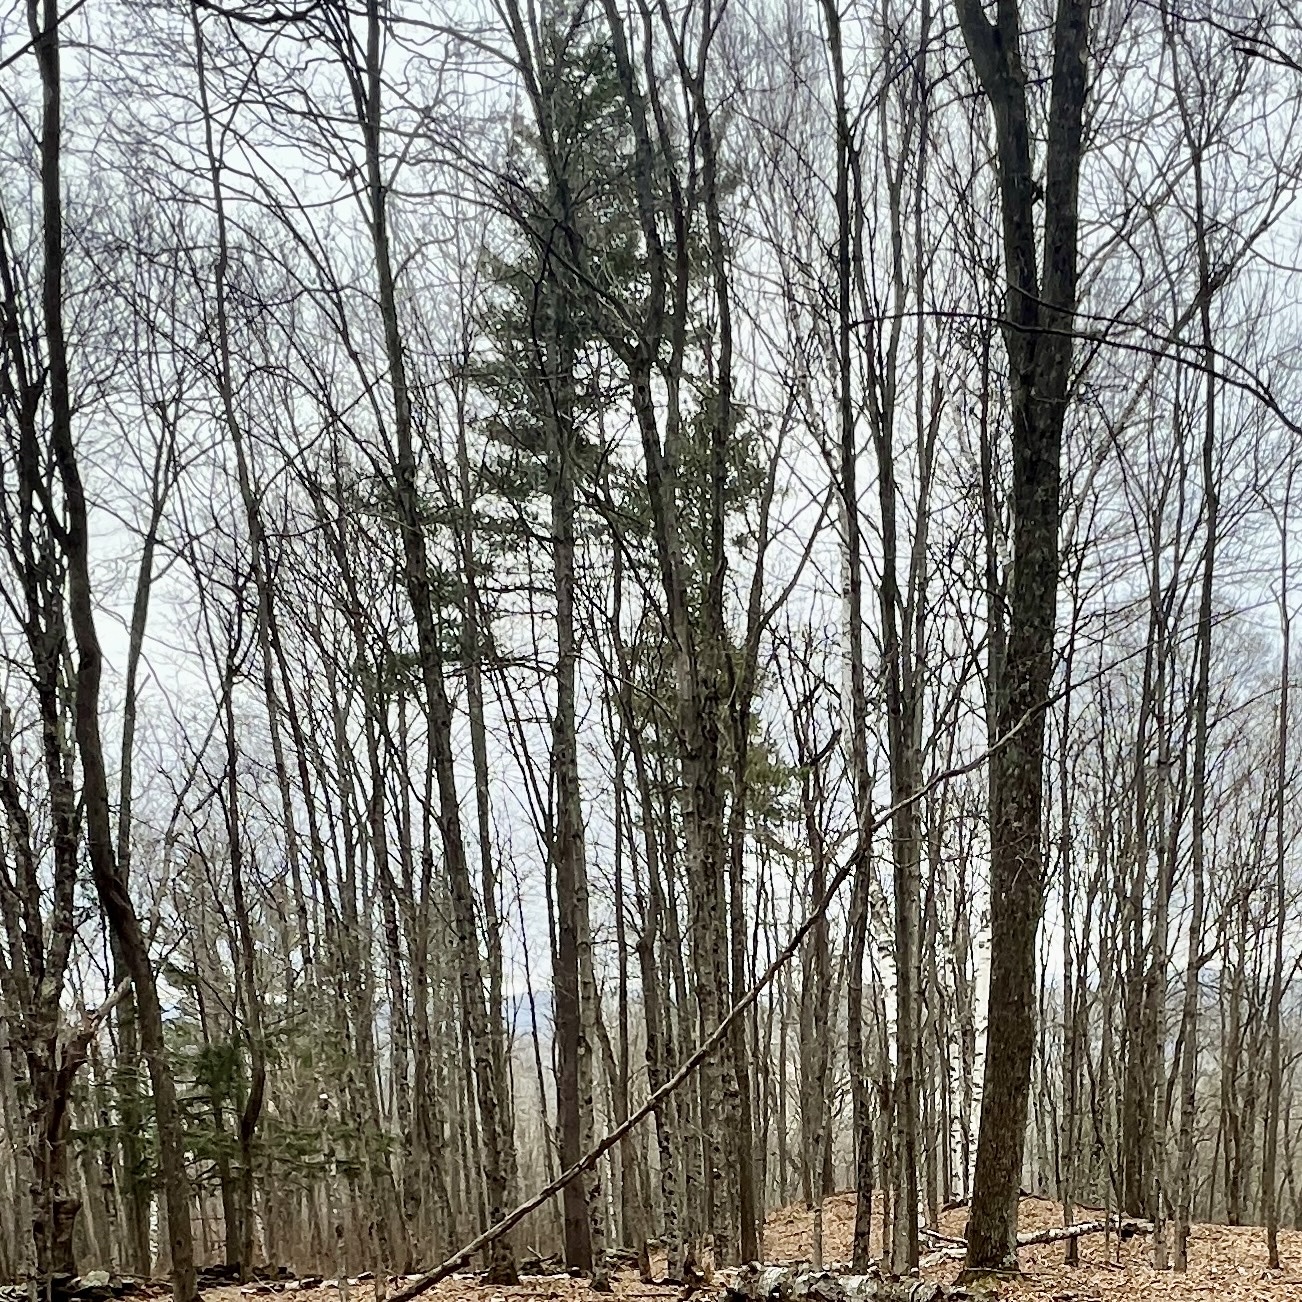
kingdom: Plantae
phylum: Tracheophyta
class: Pinopsida
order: Pinales
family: Pinaceae
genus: Picea
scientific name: Picea rubens
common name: Red spruce
